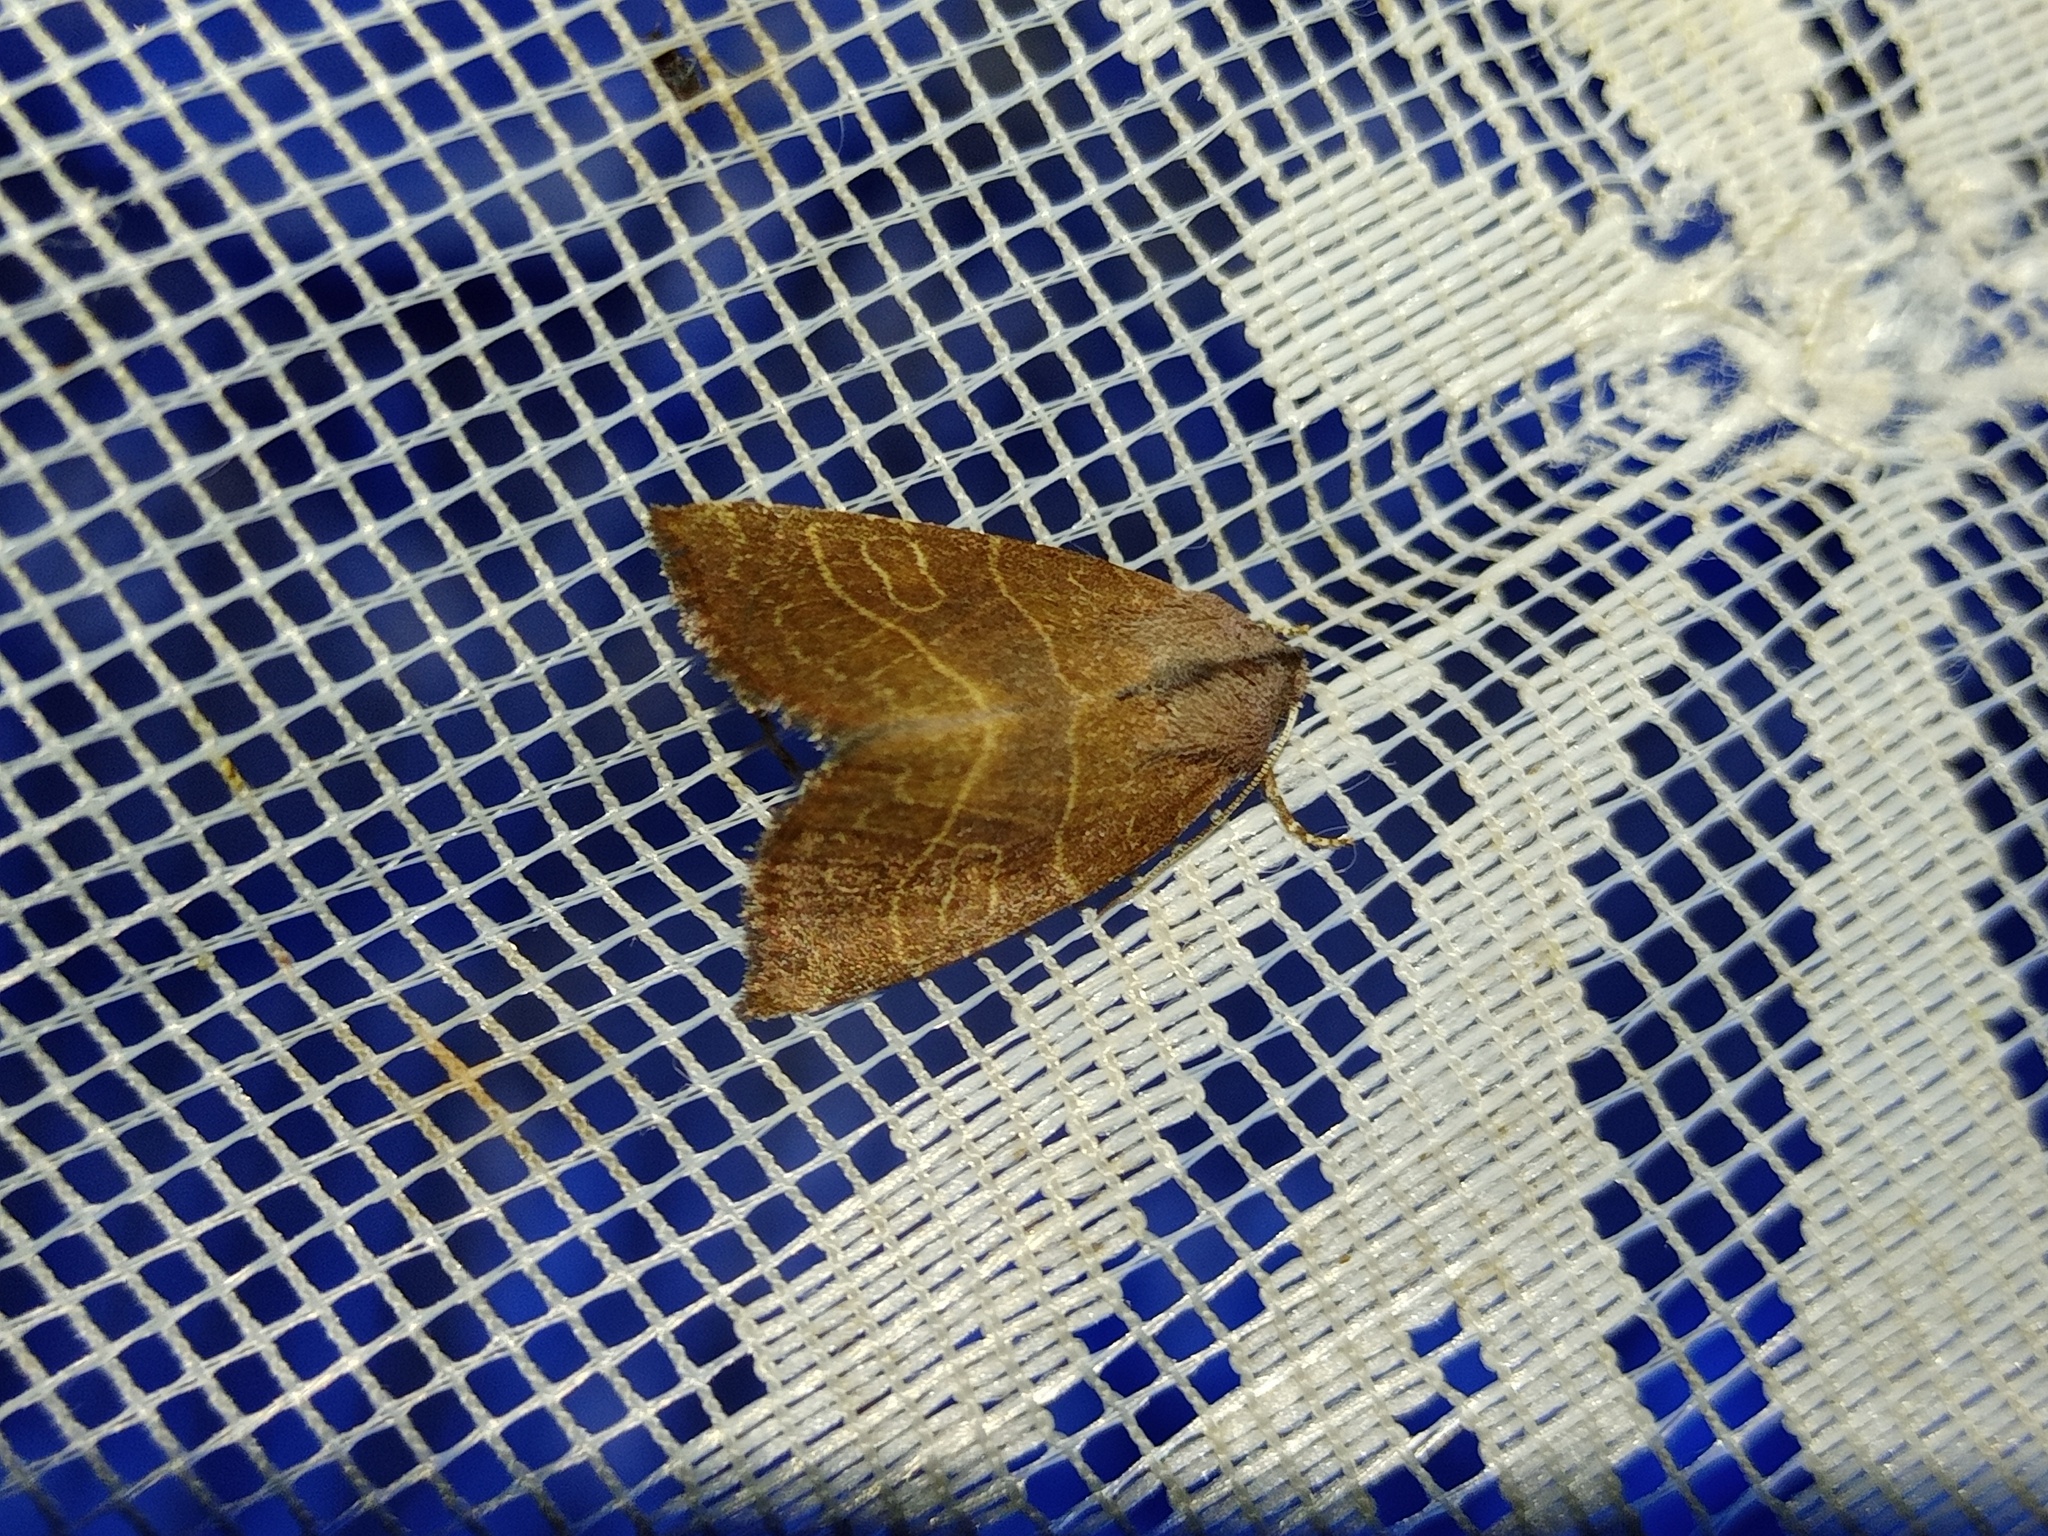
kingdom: Animalia
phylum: Arthropoda
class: Insecta
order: Lepidoptera
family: Noctuidae
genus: Atethmia
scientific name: Atethmia ambusta
